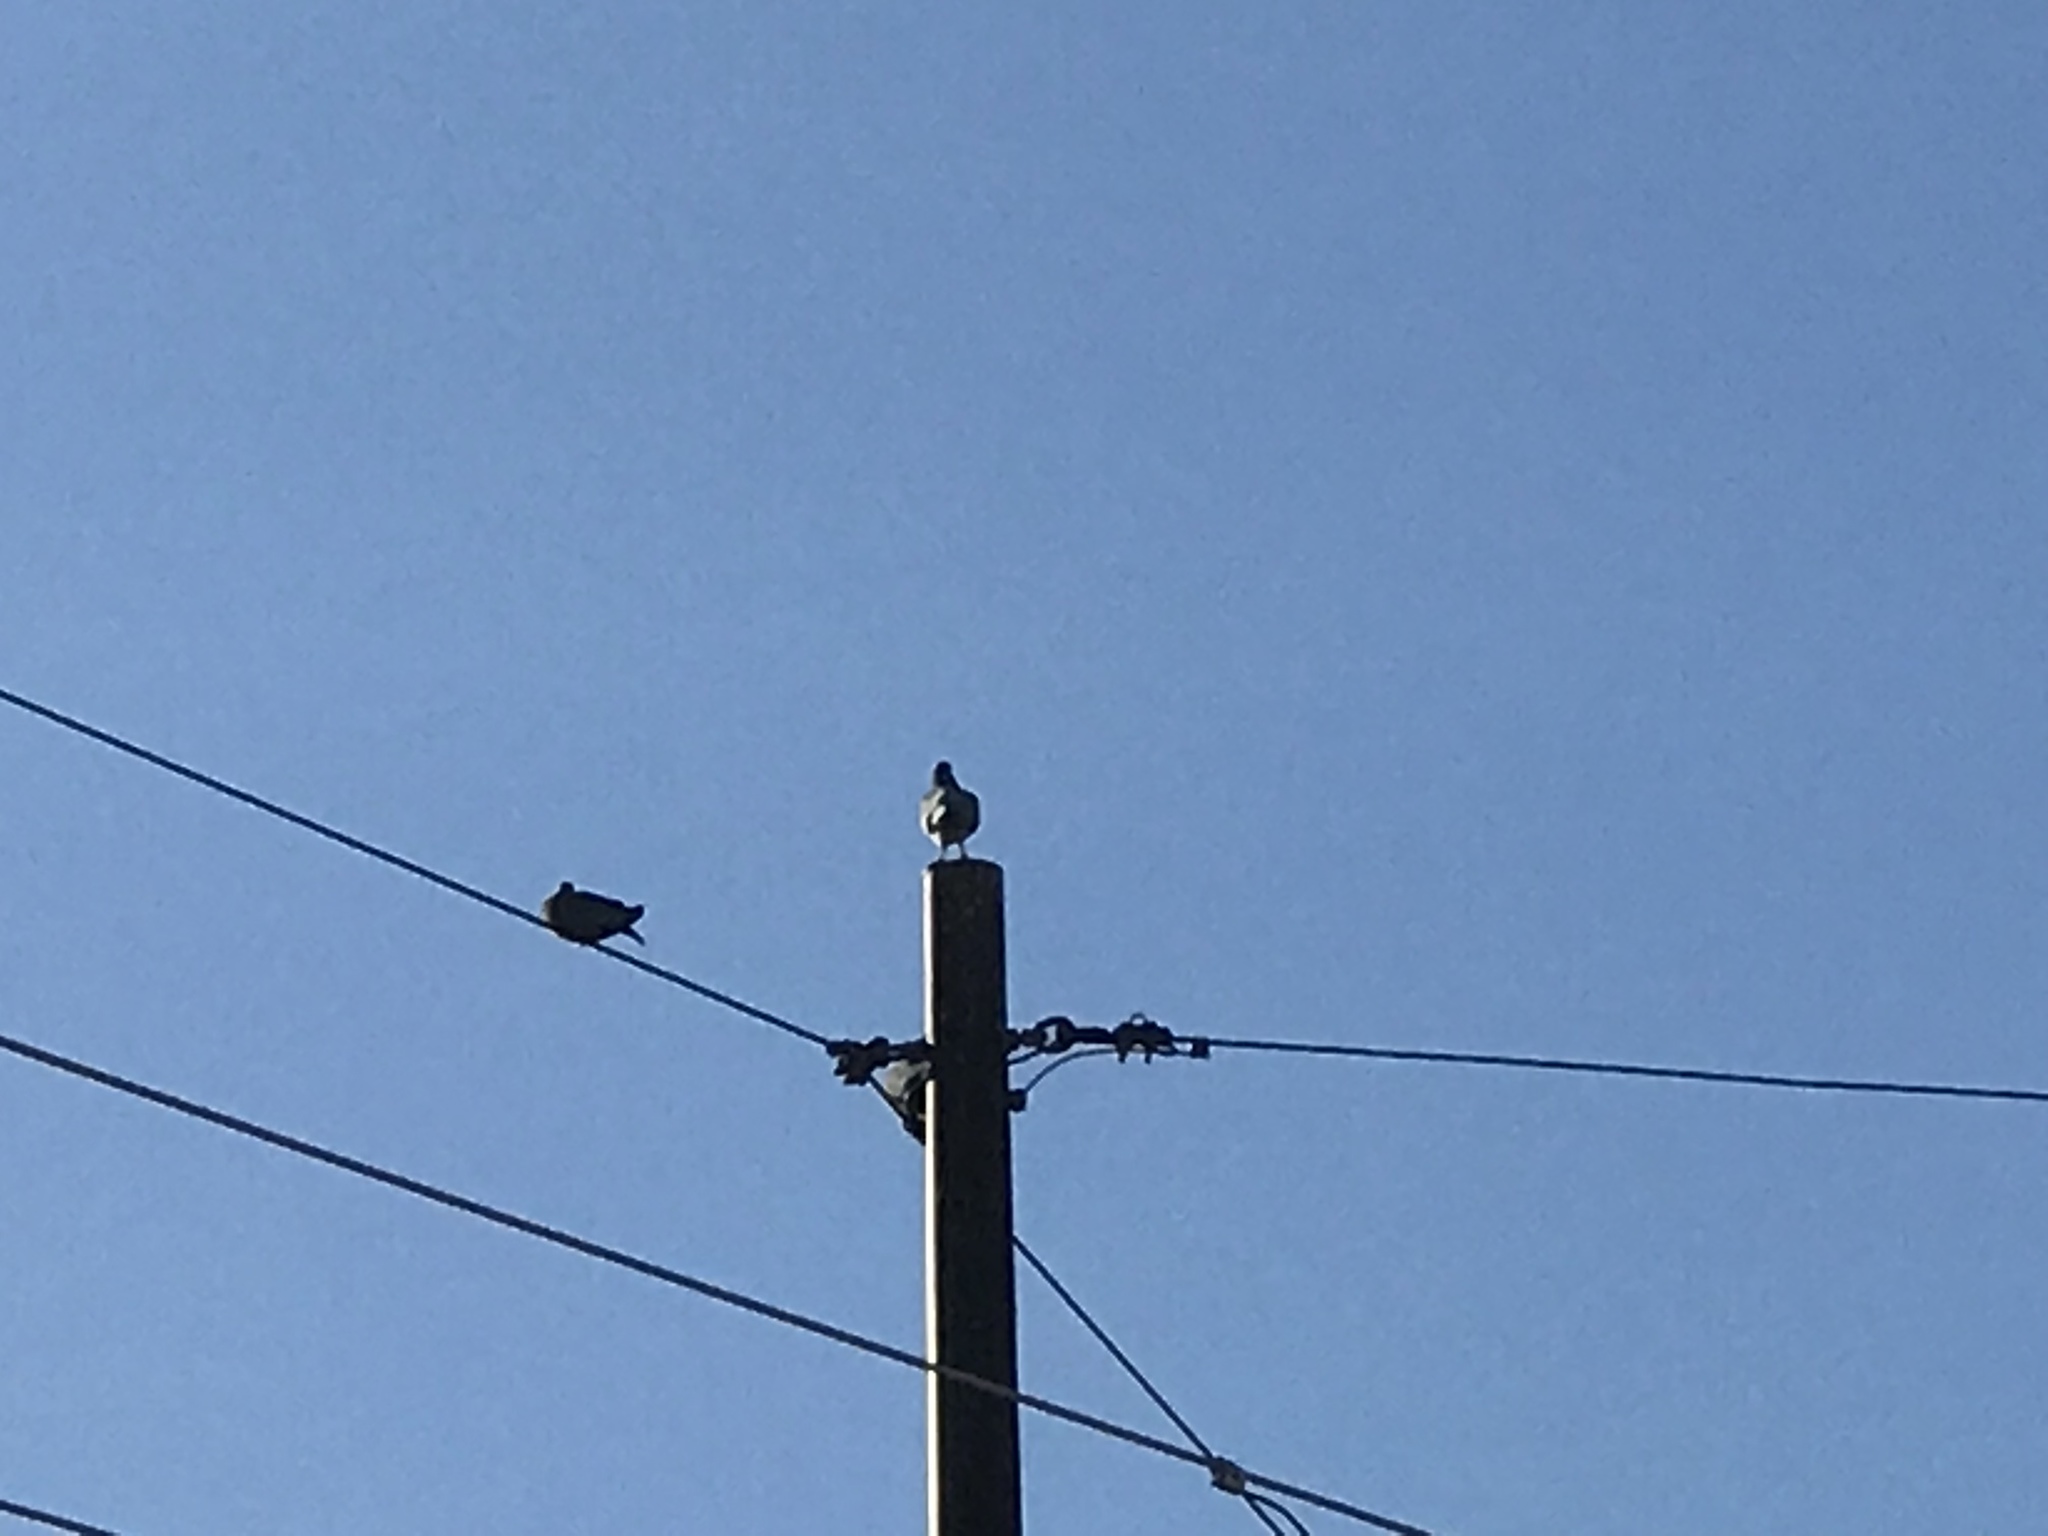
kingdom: Animalia
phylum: Chordata
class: Aves
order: Columbiformes
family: Columbidae
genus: Columba
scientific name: Columba livia
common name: Rock pigeon
